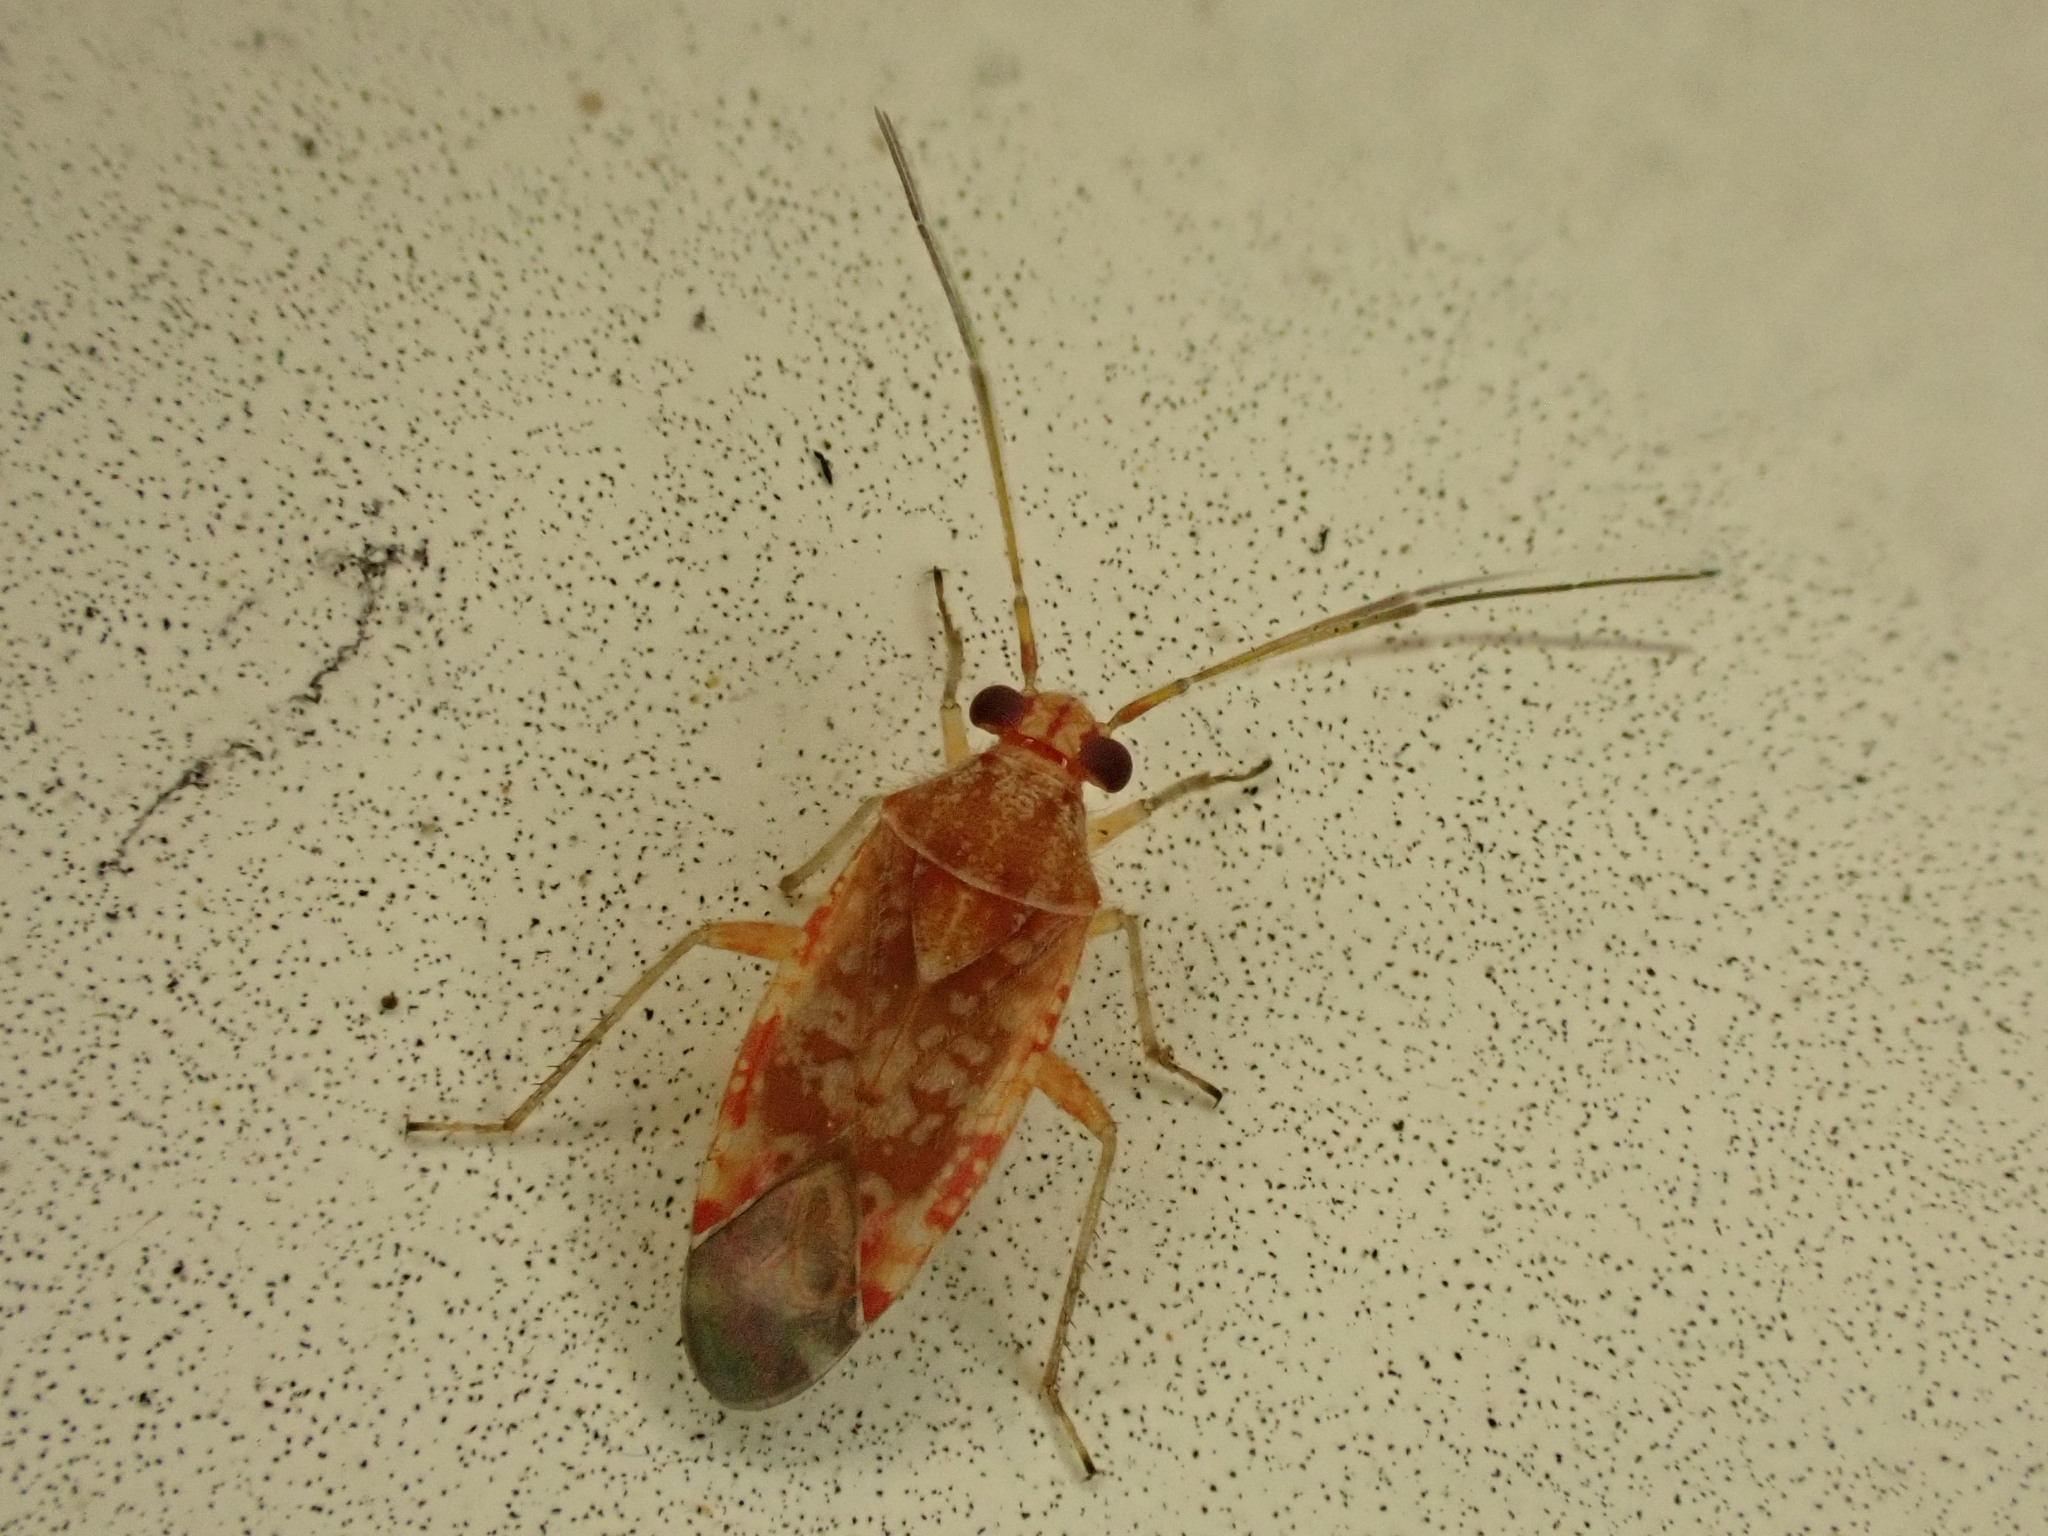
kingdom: Animalia
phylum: Arthropoda
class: Insecta
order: Hemiptera
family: Miridae
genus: Tinginotum
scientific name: Tinginotum minutum
